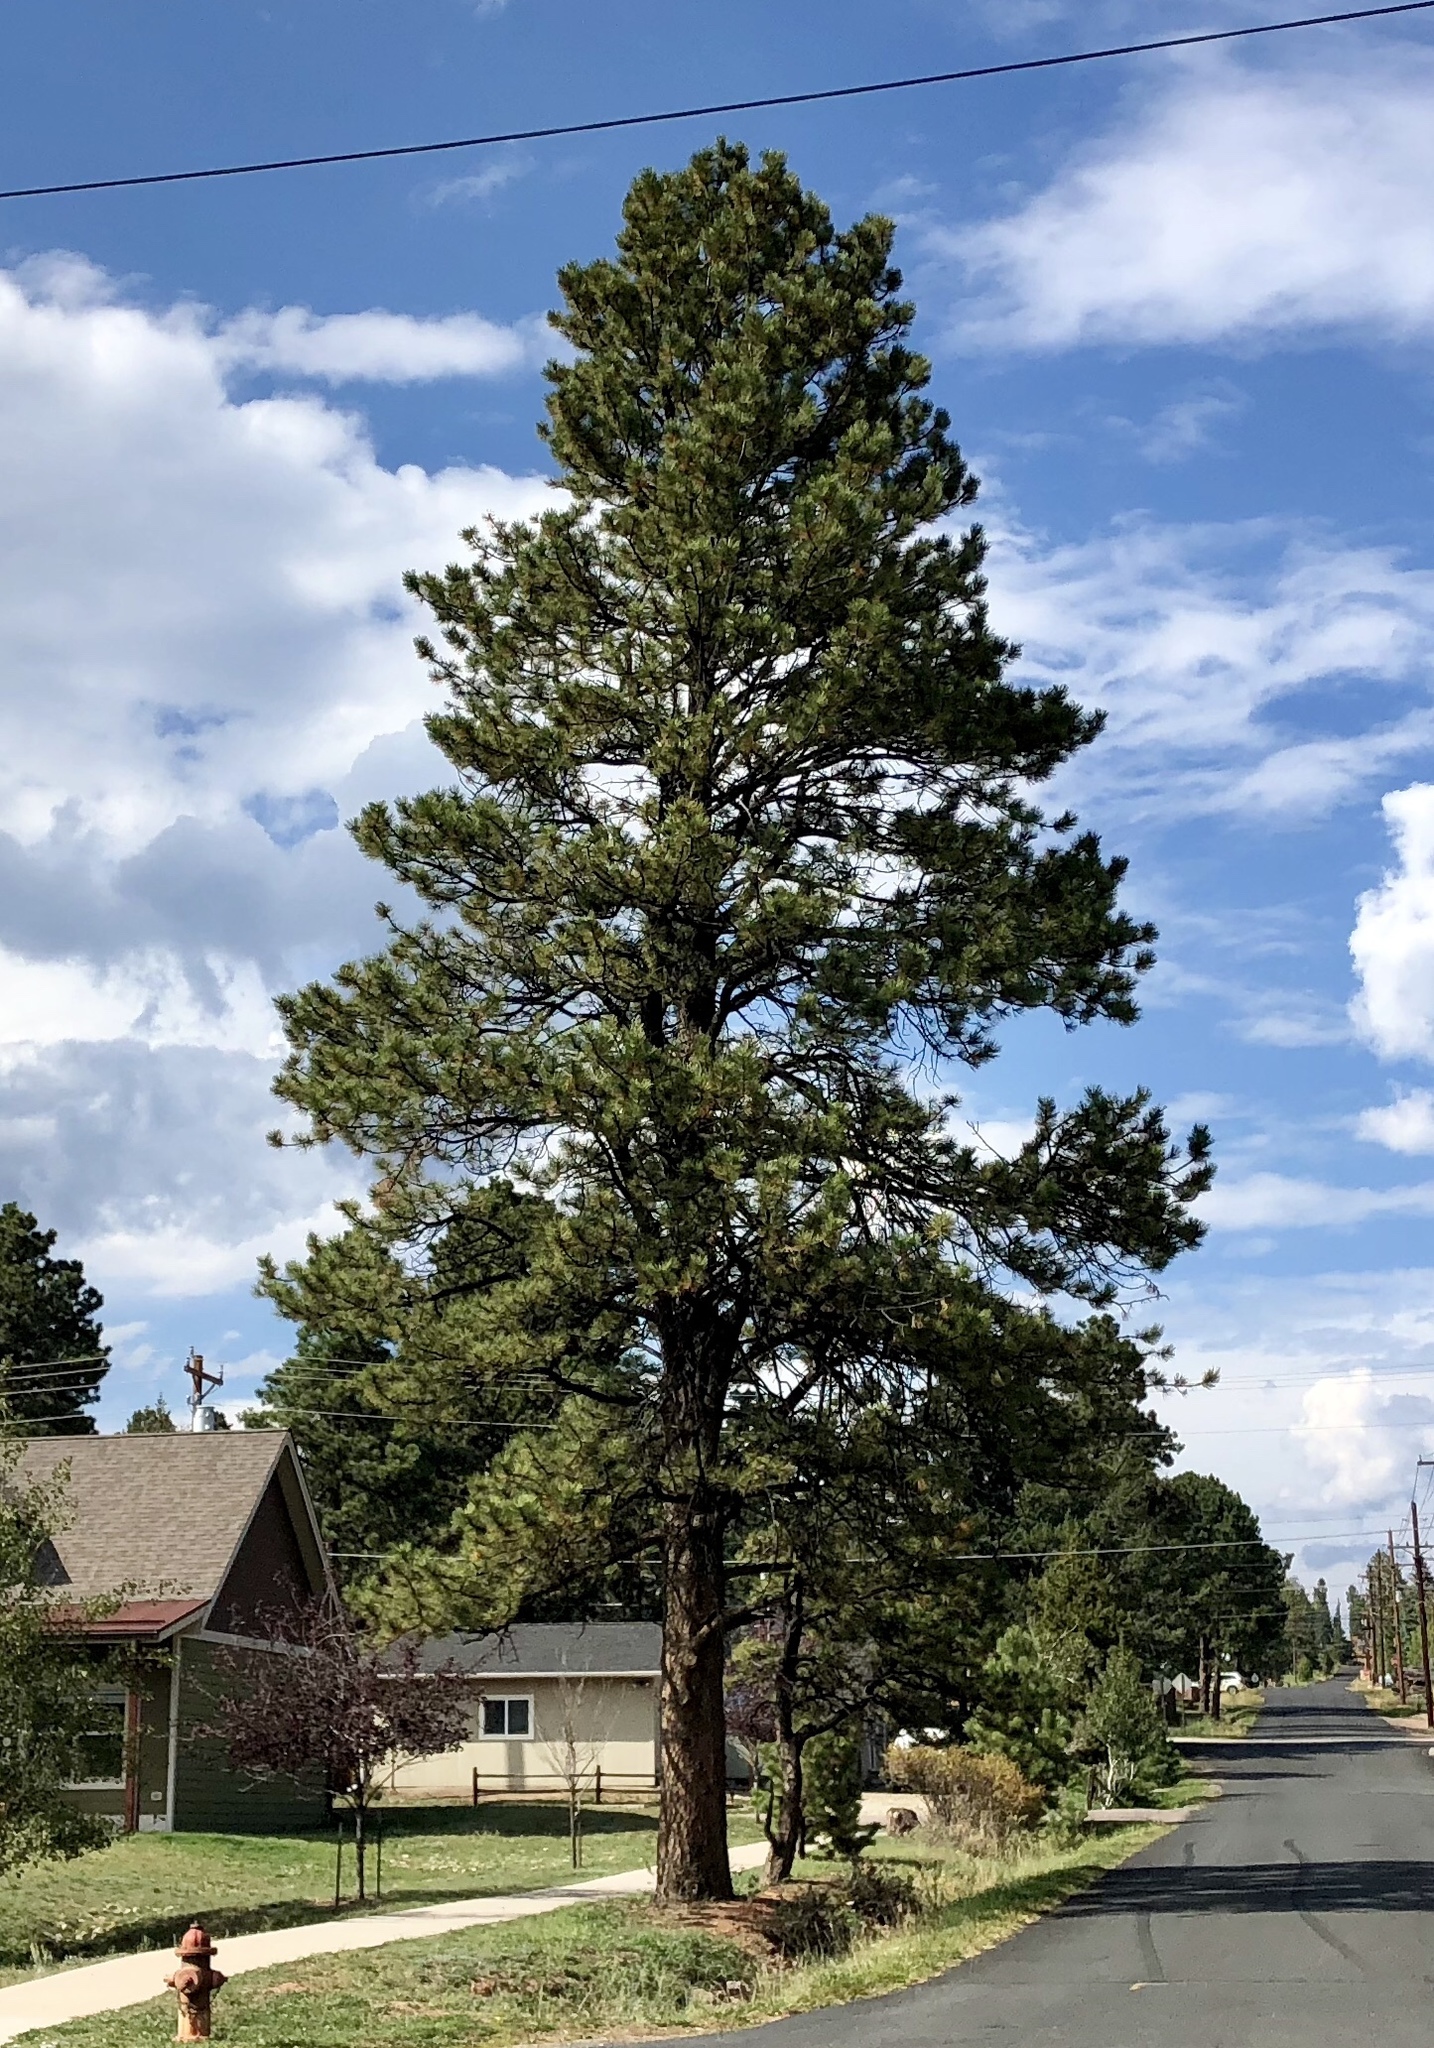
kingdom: Plantae
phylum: Tracheophyta
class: Pinopsida
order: Pinales
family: Pinaceae
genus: Pinus
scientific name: Pinus ponderosa
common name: Western yellow-pine
